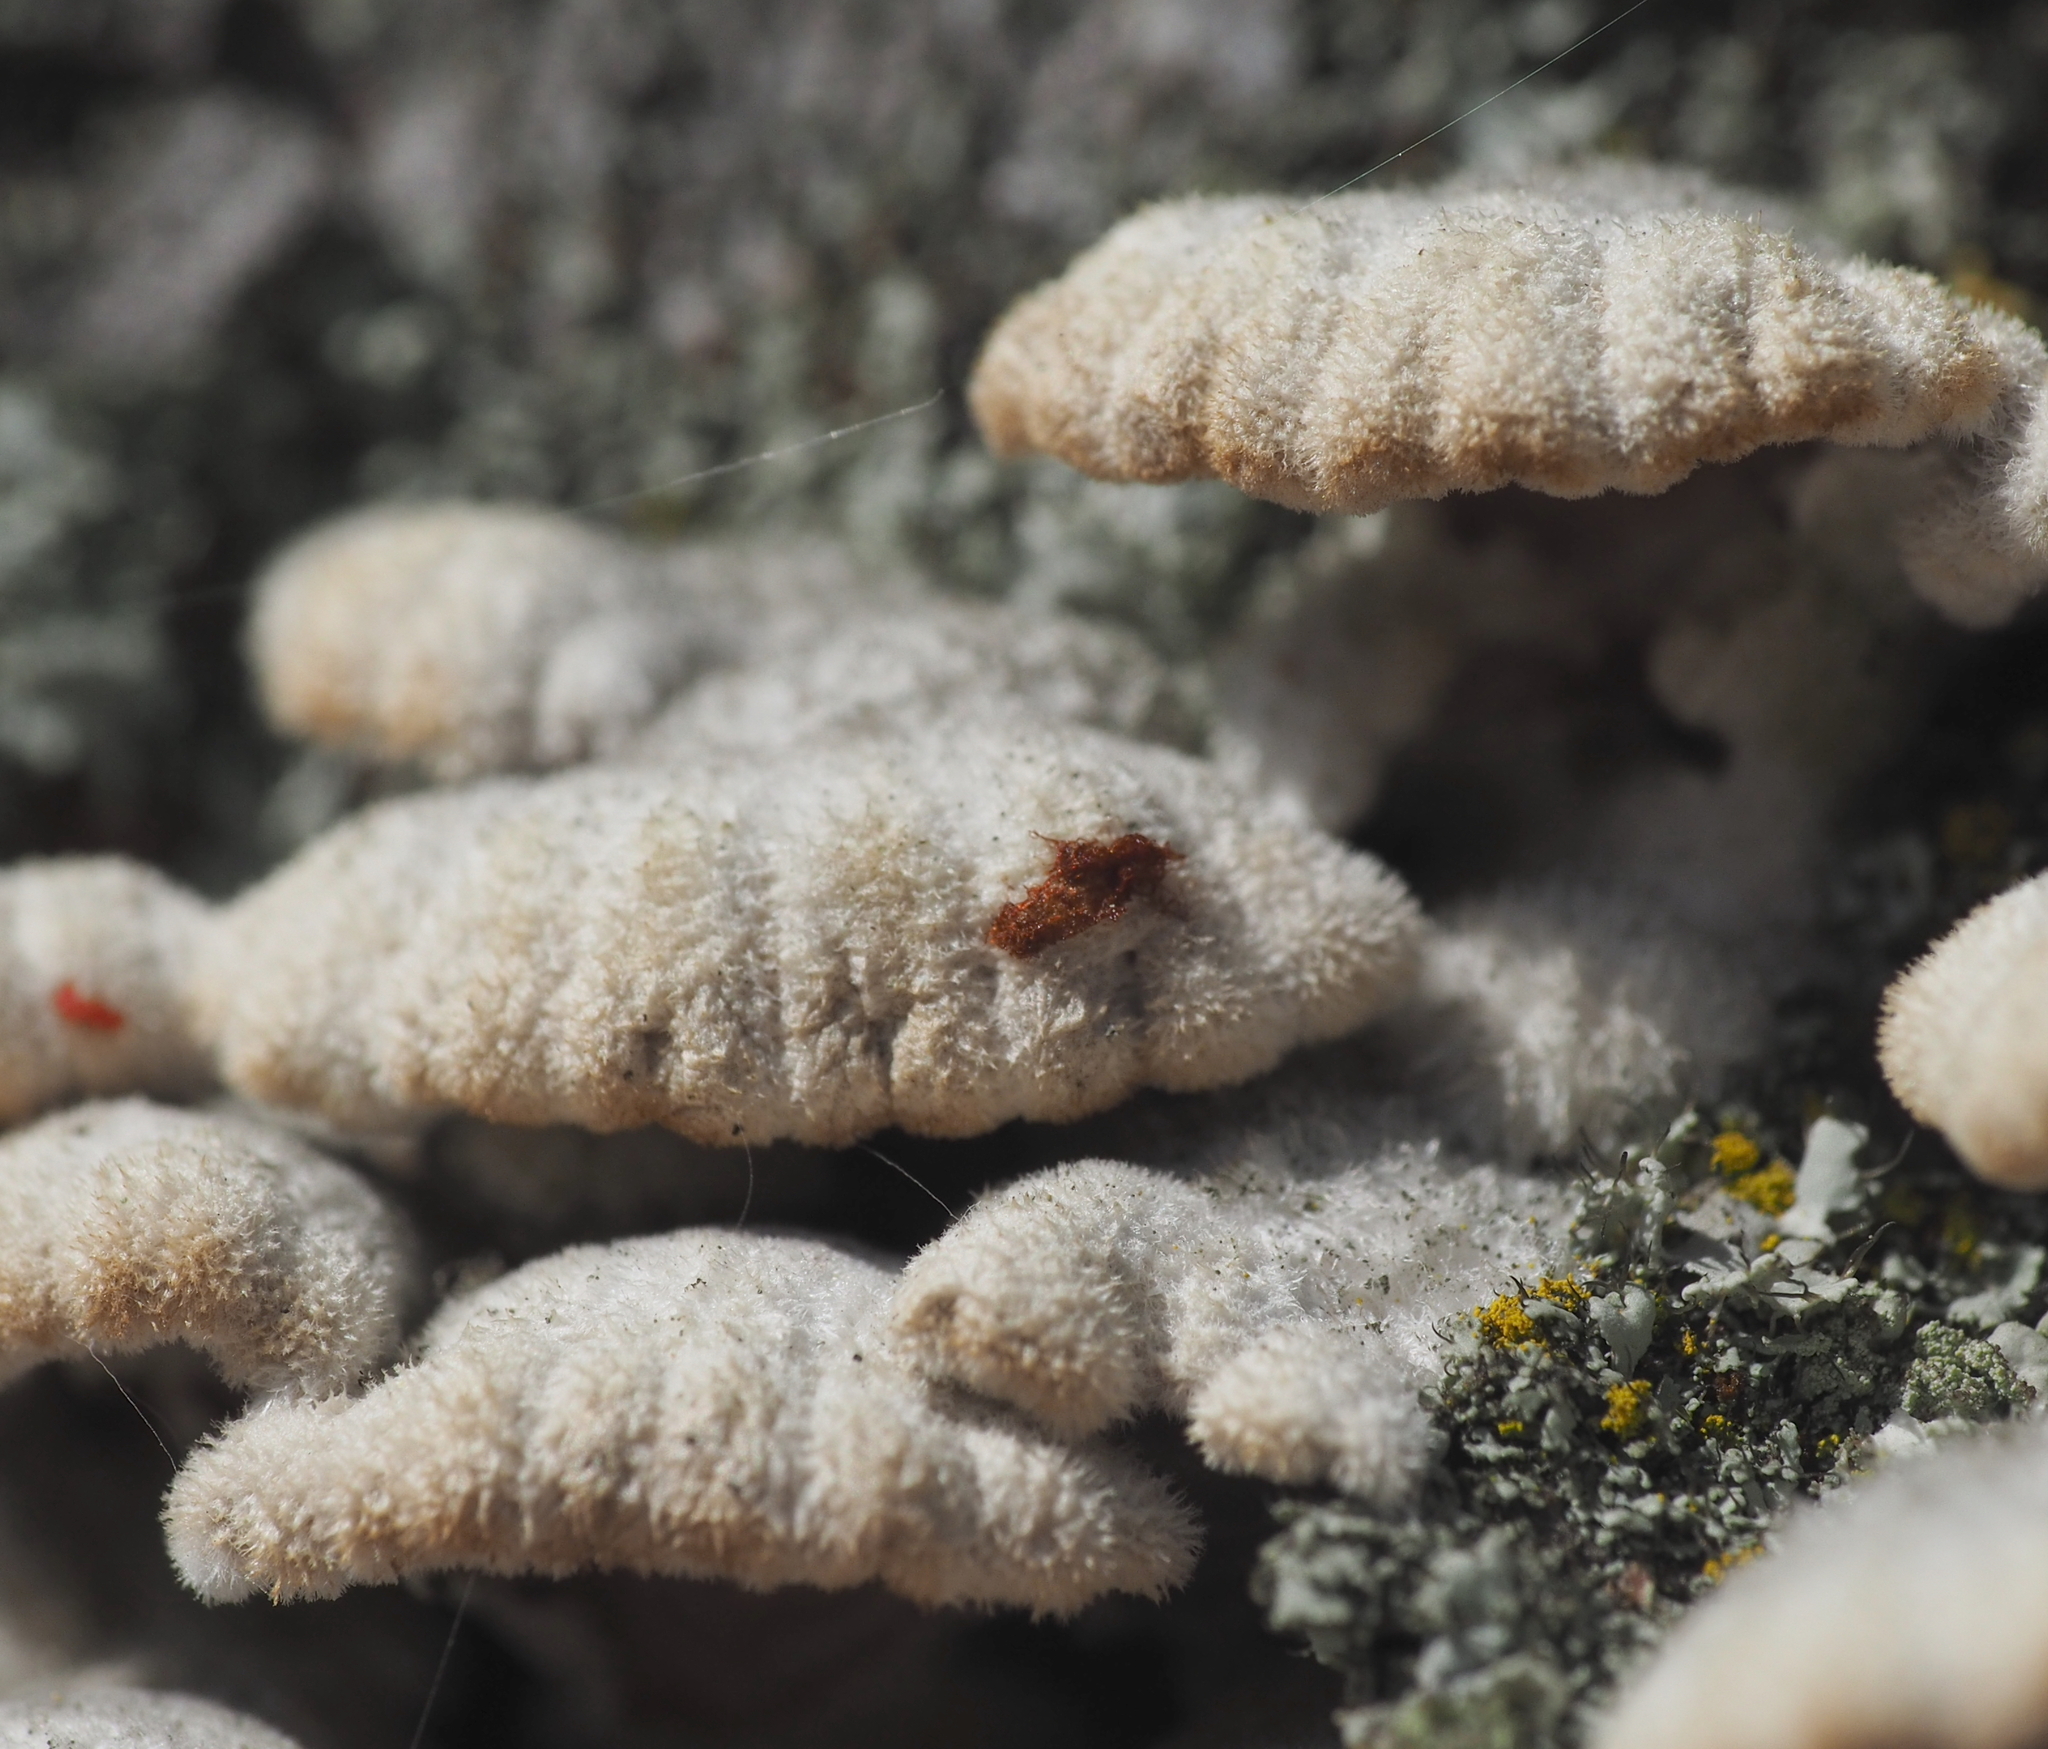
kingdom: Fungi
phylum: Basidiomycota
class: Agaricomycetes
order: Agaricales
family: Schizophyllaceae
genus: Schizophyllum
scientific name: Schizophyllum commune
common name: Common porecrust
